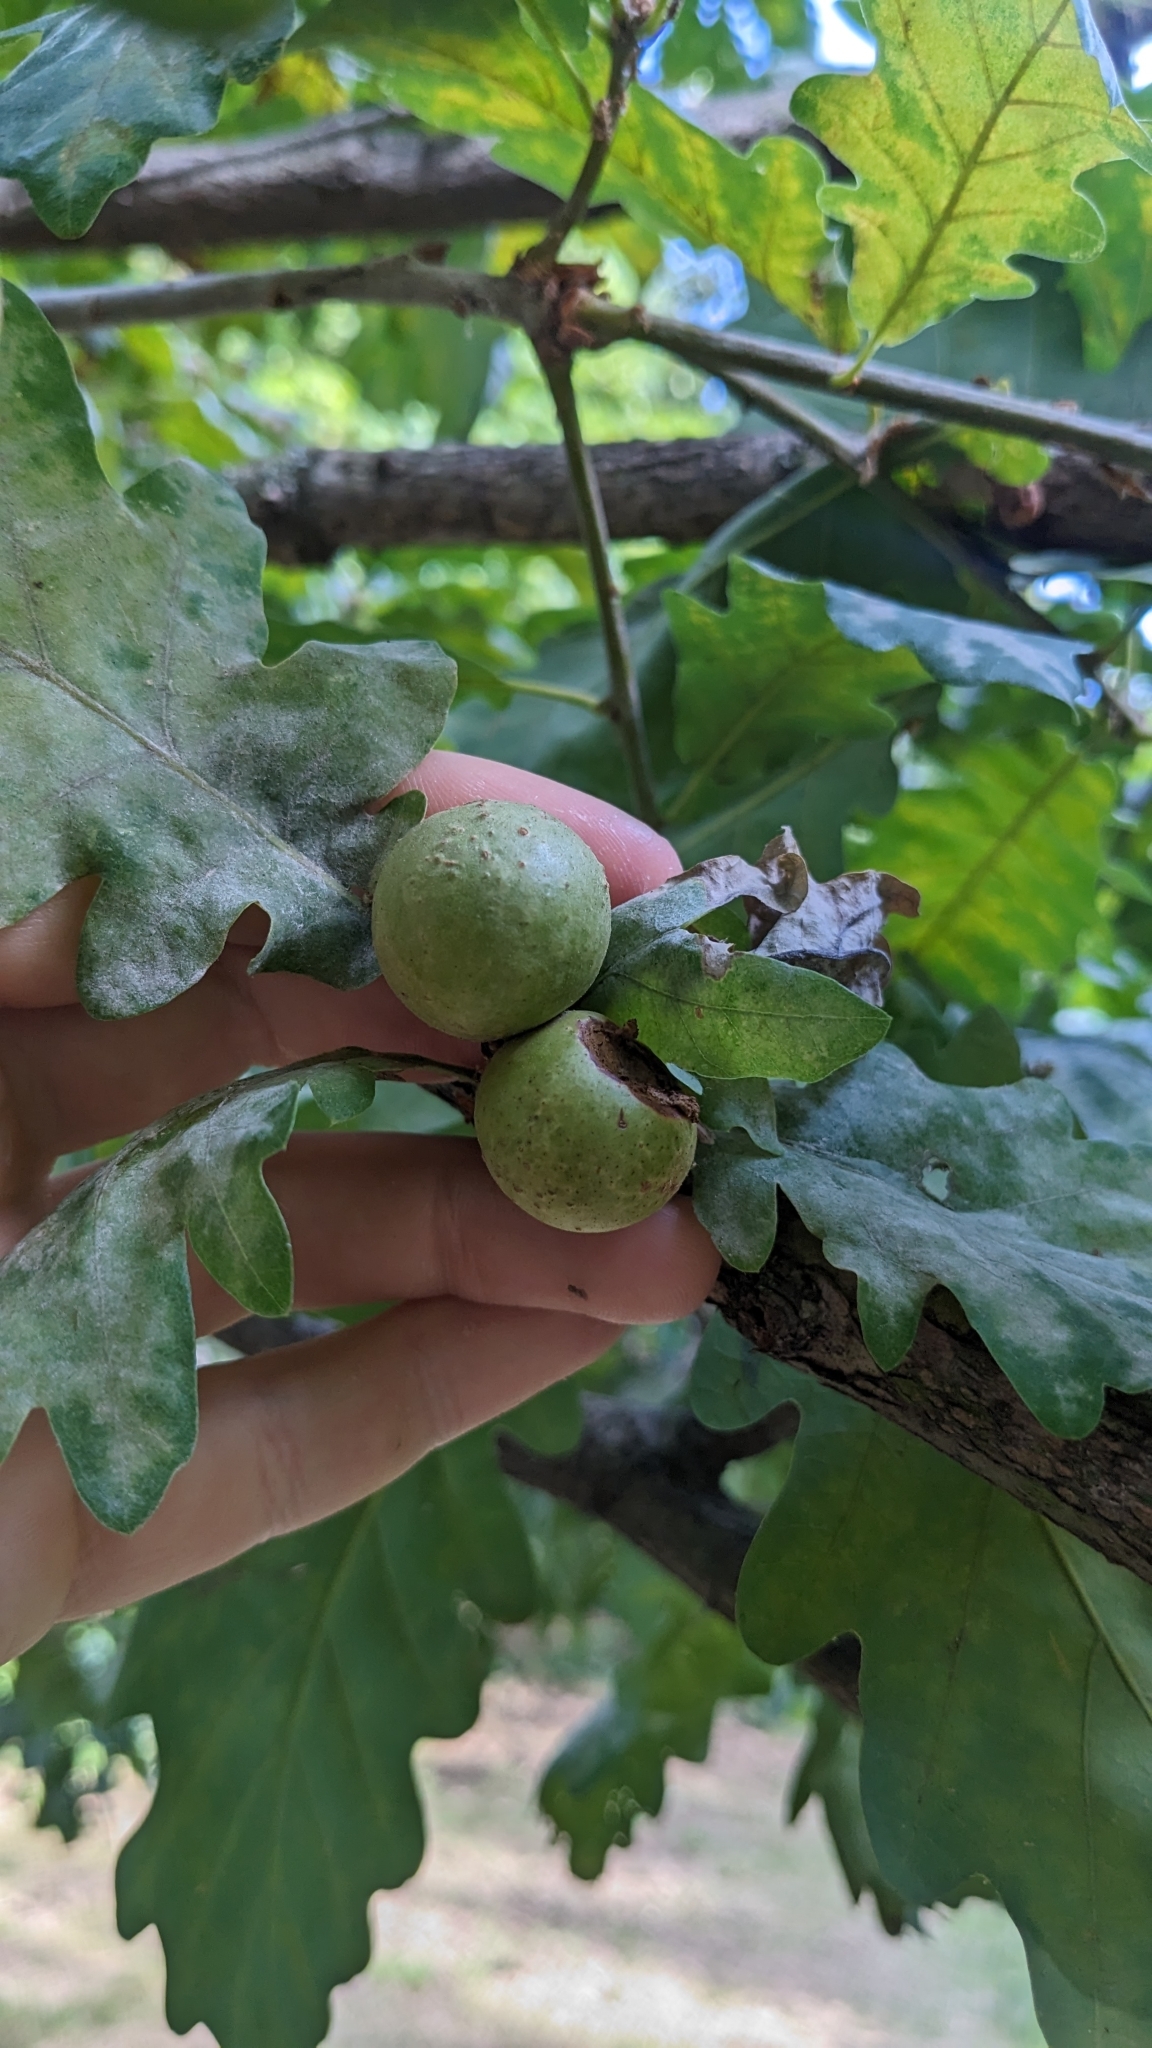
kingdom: Animalia
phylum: Arthropoda
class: Insecta
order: Hymenoptera
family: Cynipidae
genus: Andricus
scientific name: Andricus kollari
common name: Marble gall
